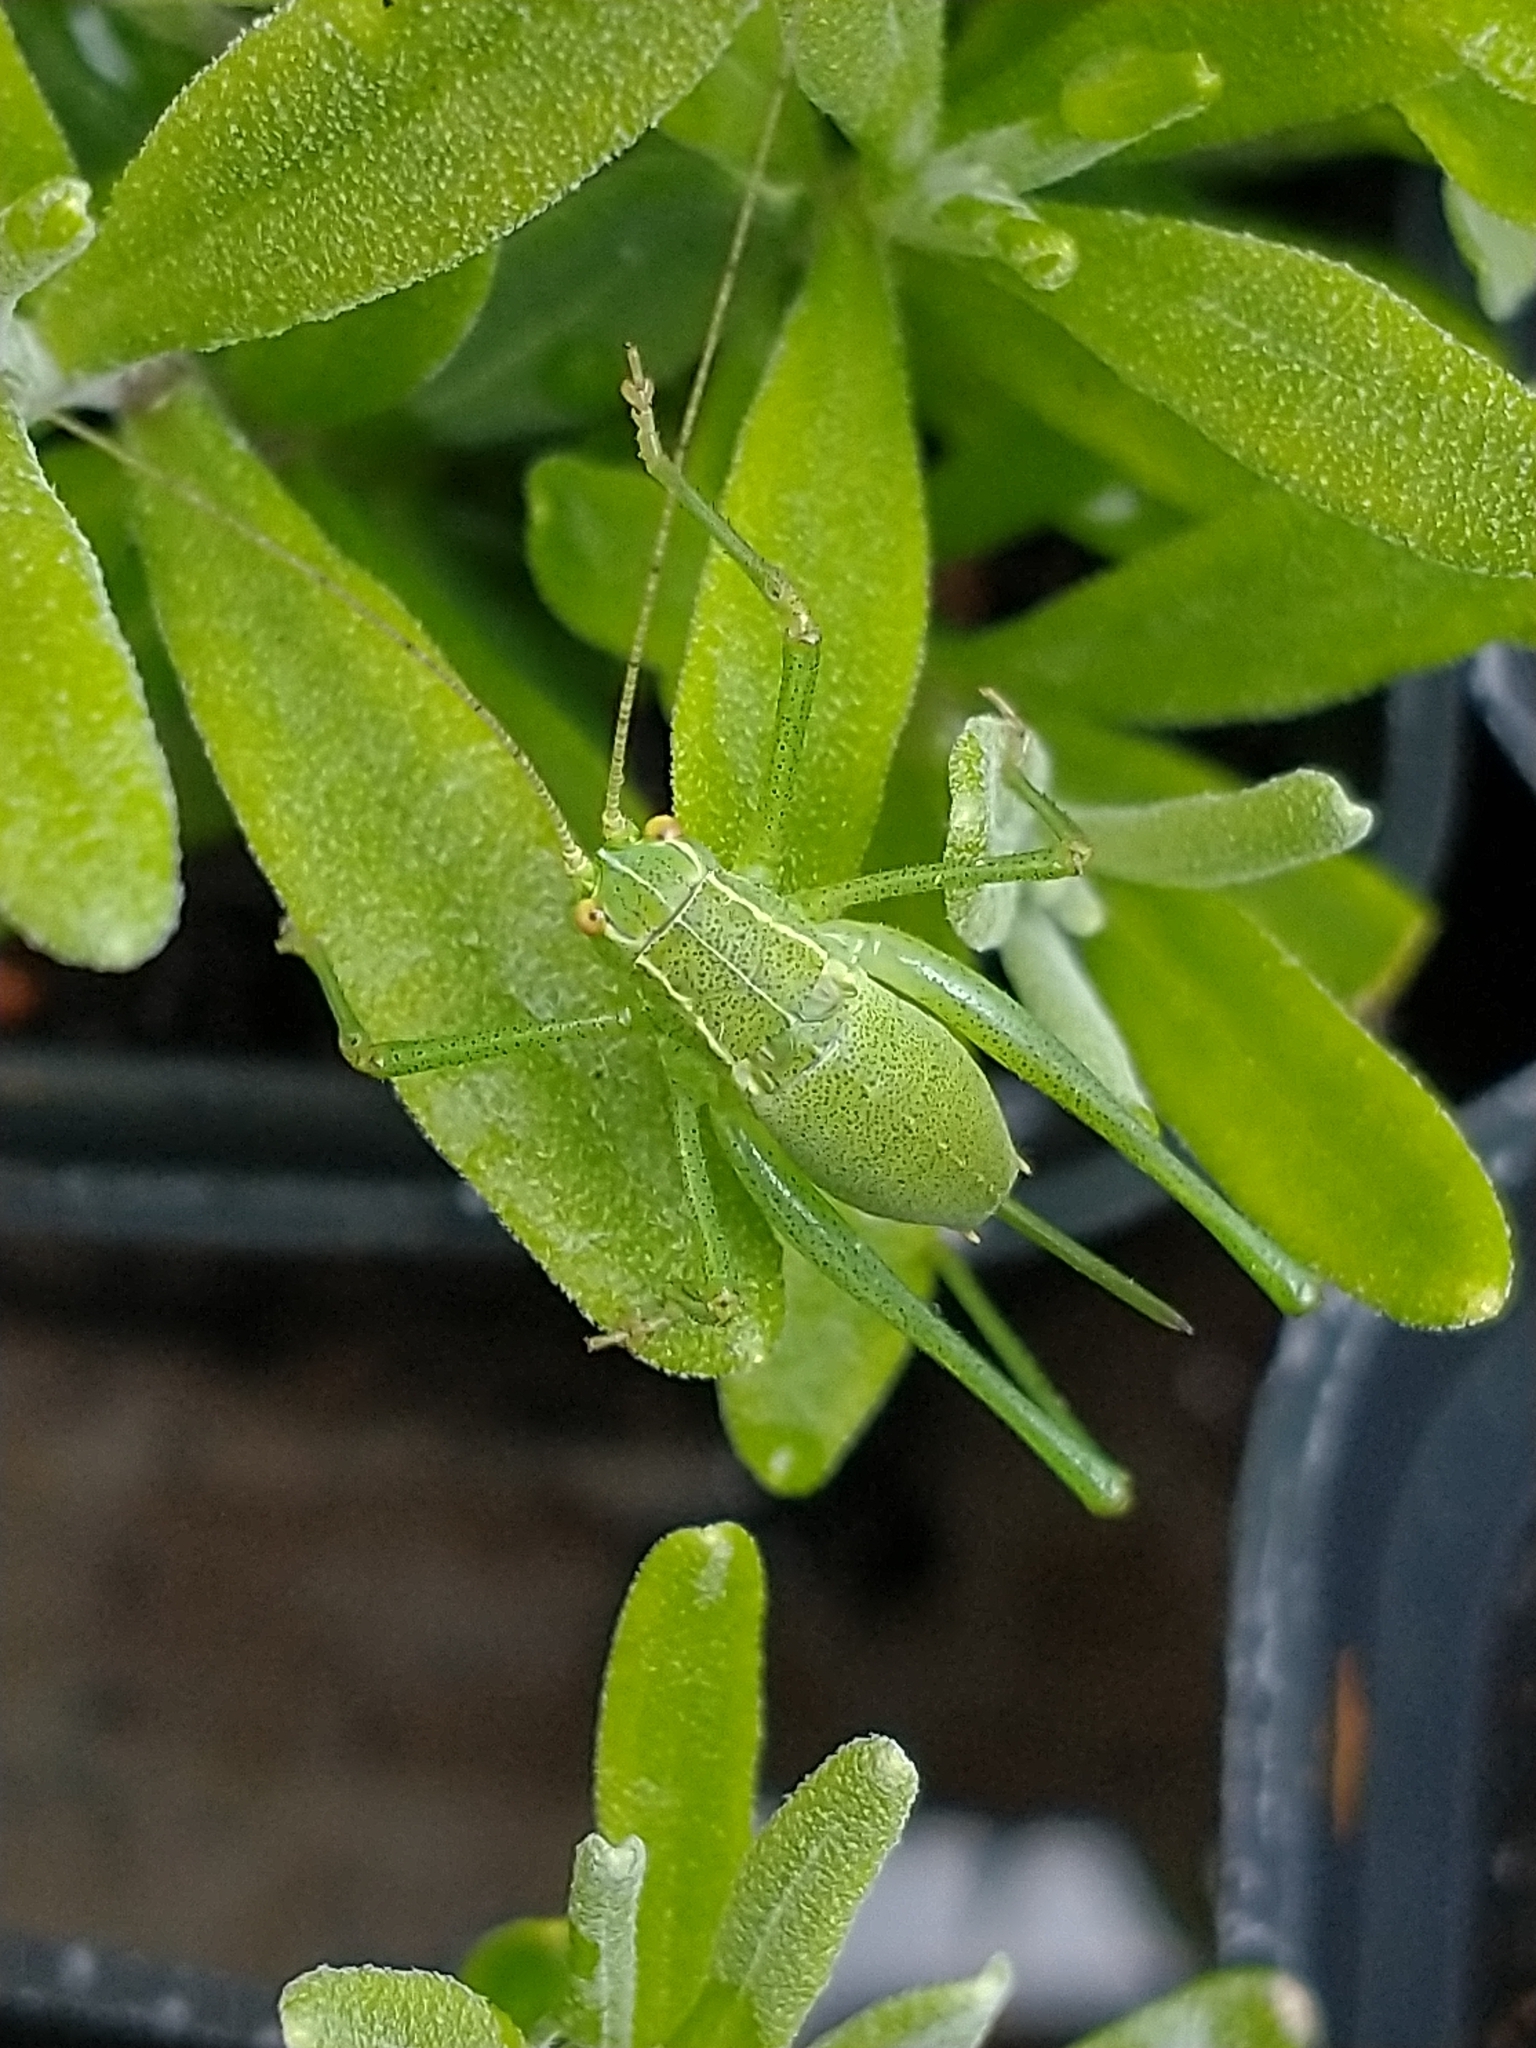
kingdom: Animalia
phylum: Arthropoda
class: Insecta
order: Orthoptera
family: Tettigoniidae
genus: Leptophyes
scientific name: Leptophyes punctatissima
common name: Speckled bush-cricket
